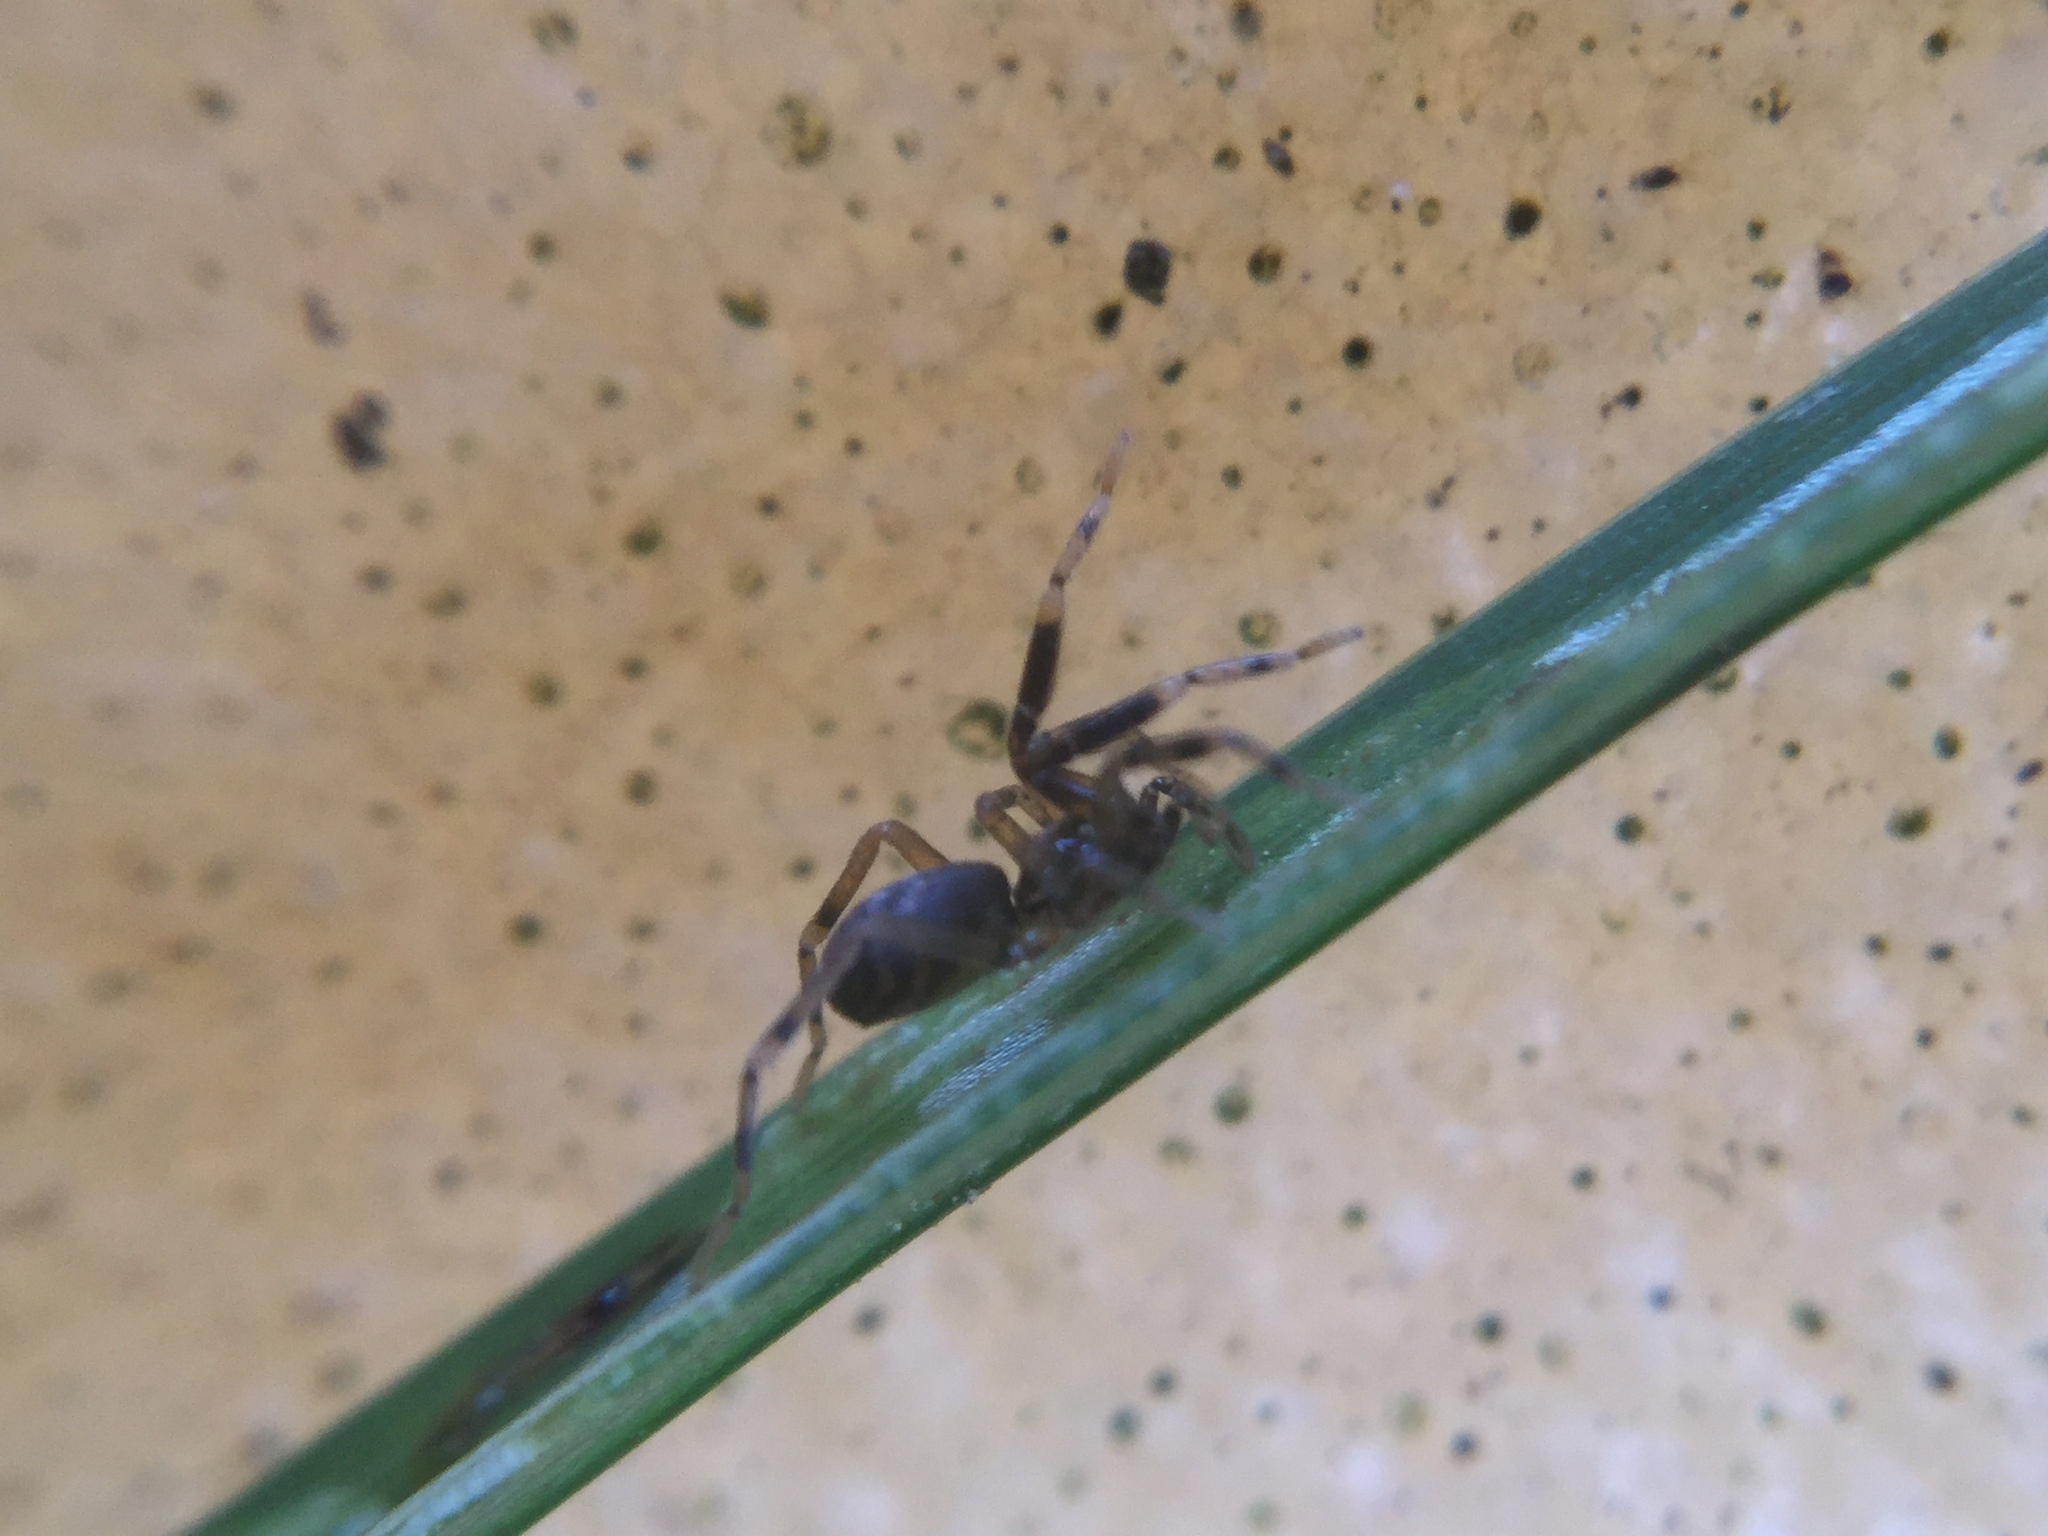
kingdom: Animalia
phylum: Arthropoda
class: Arachnida
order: Araneae
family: Phrurolithidae
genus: Phrurotimpus
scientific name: Phrurotimpus borealis
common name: Greater ant-mimic corinne spider
